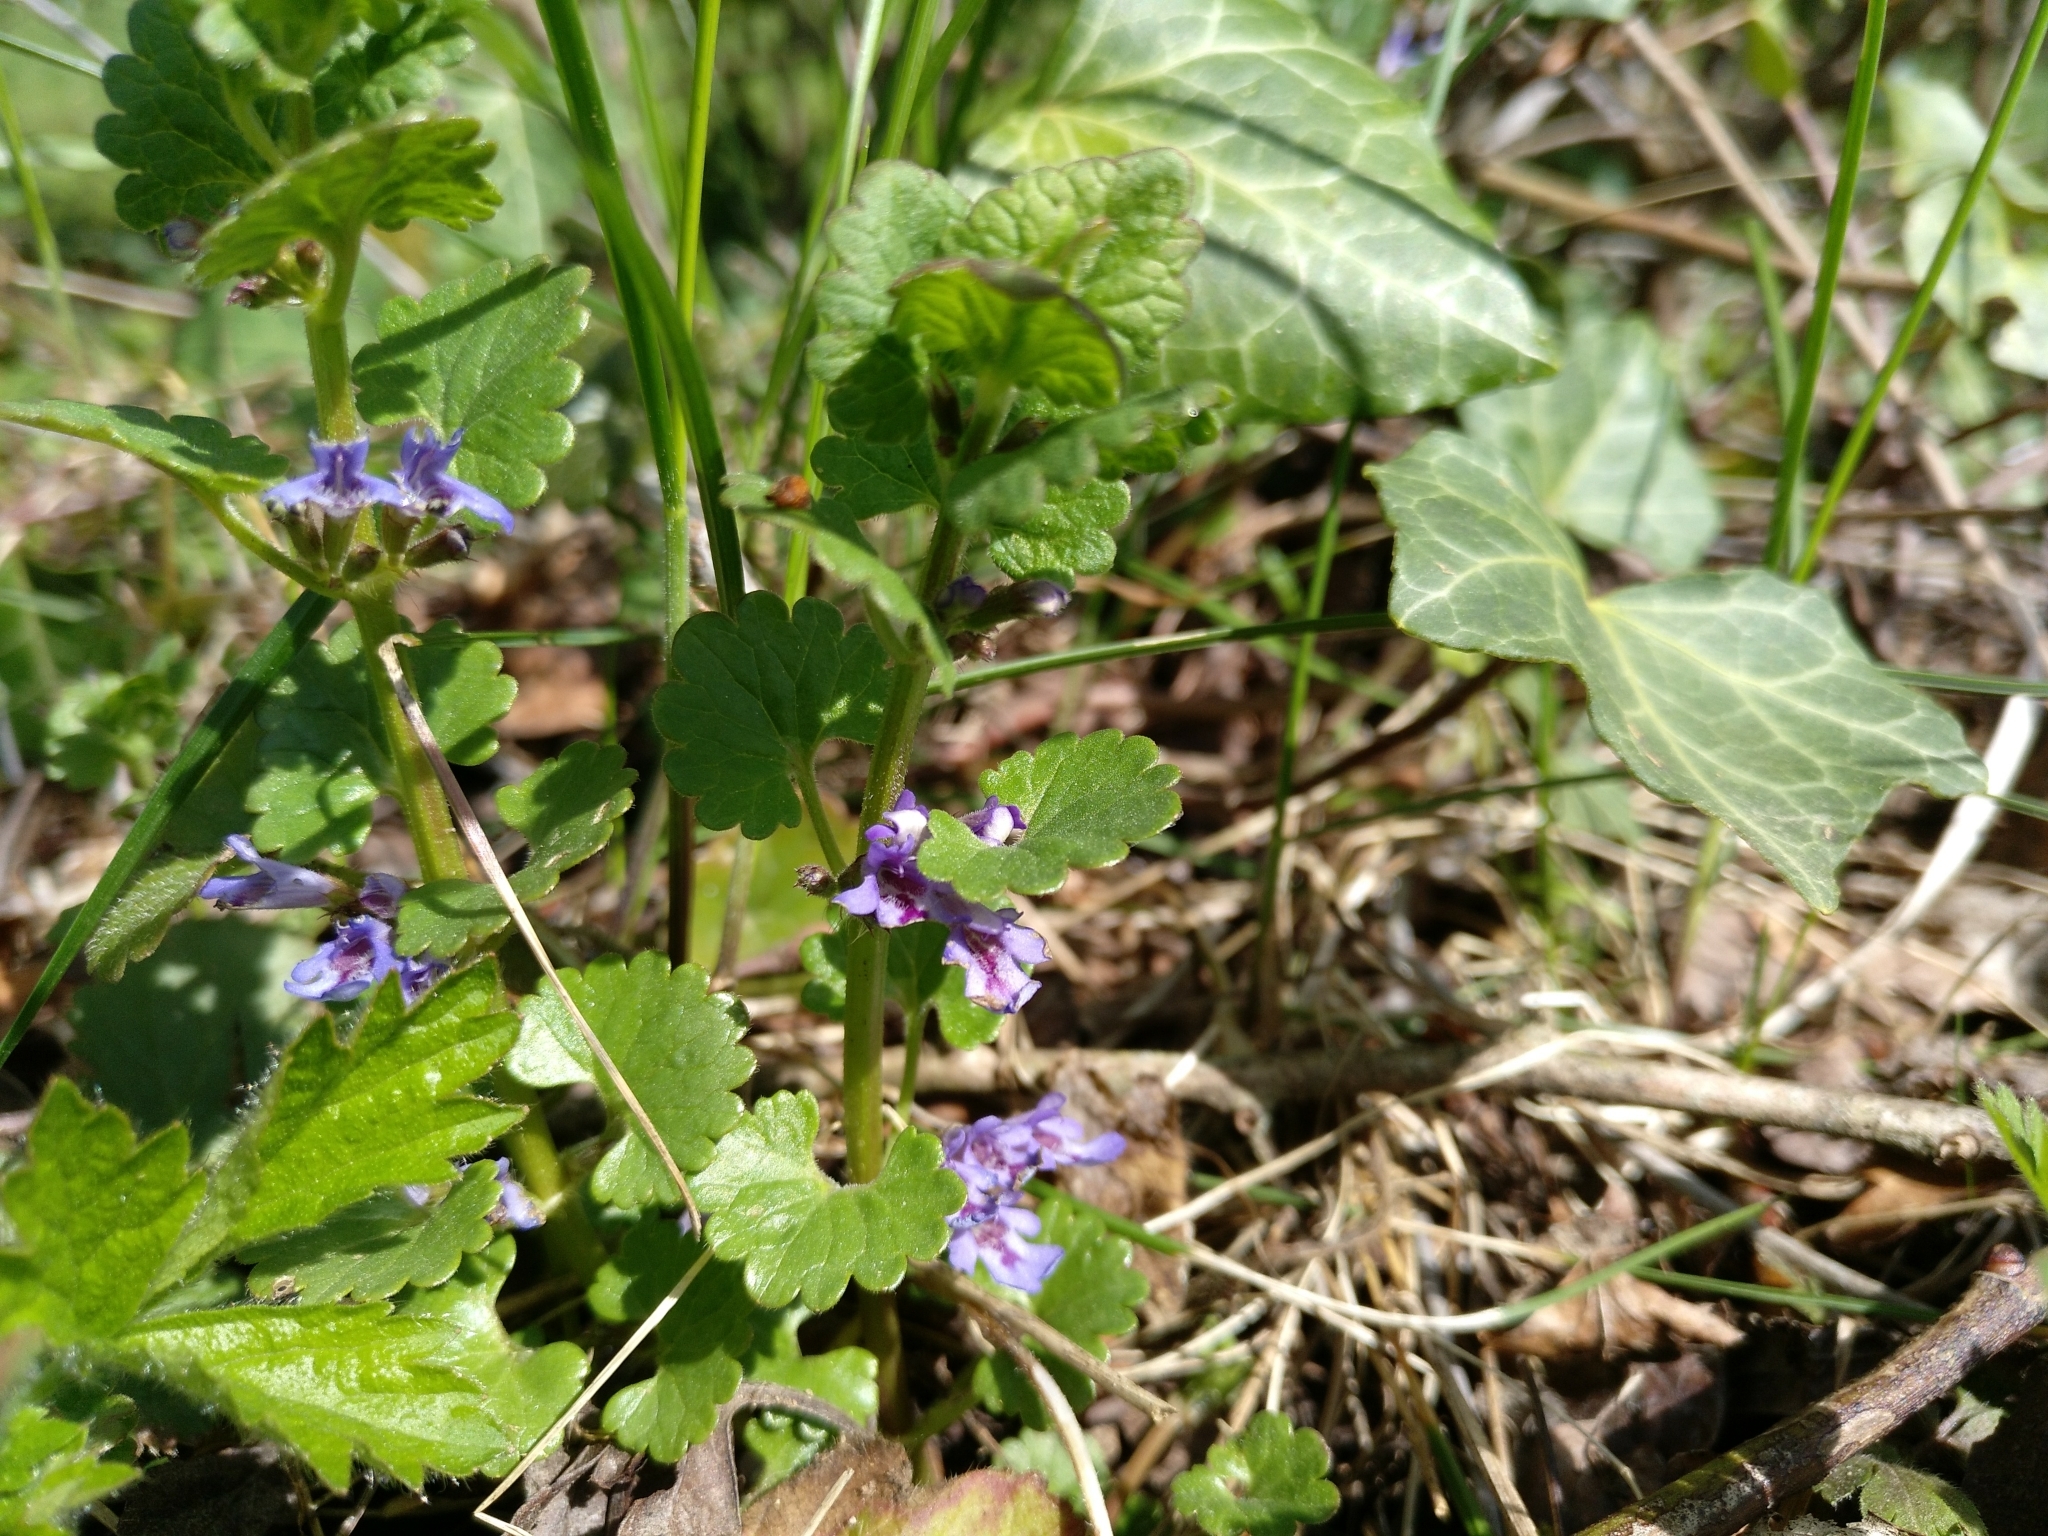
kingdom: Plantae
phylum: Tracheophyta
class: Magnoliopsida
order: Lamiales
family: Lamiaceae
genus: Glechoma
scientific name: Glechoma hederacea
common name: Ground ivy
